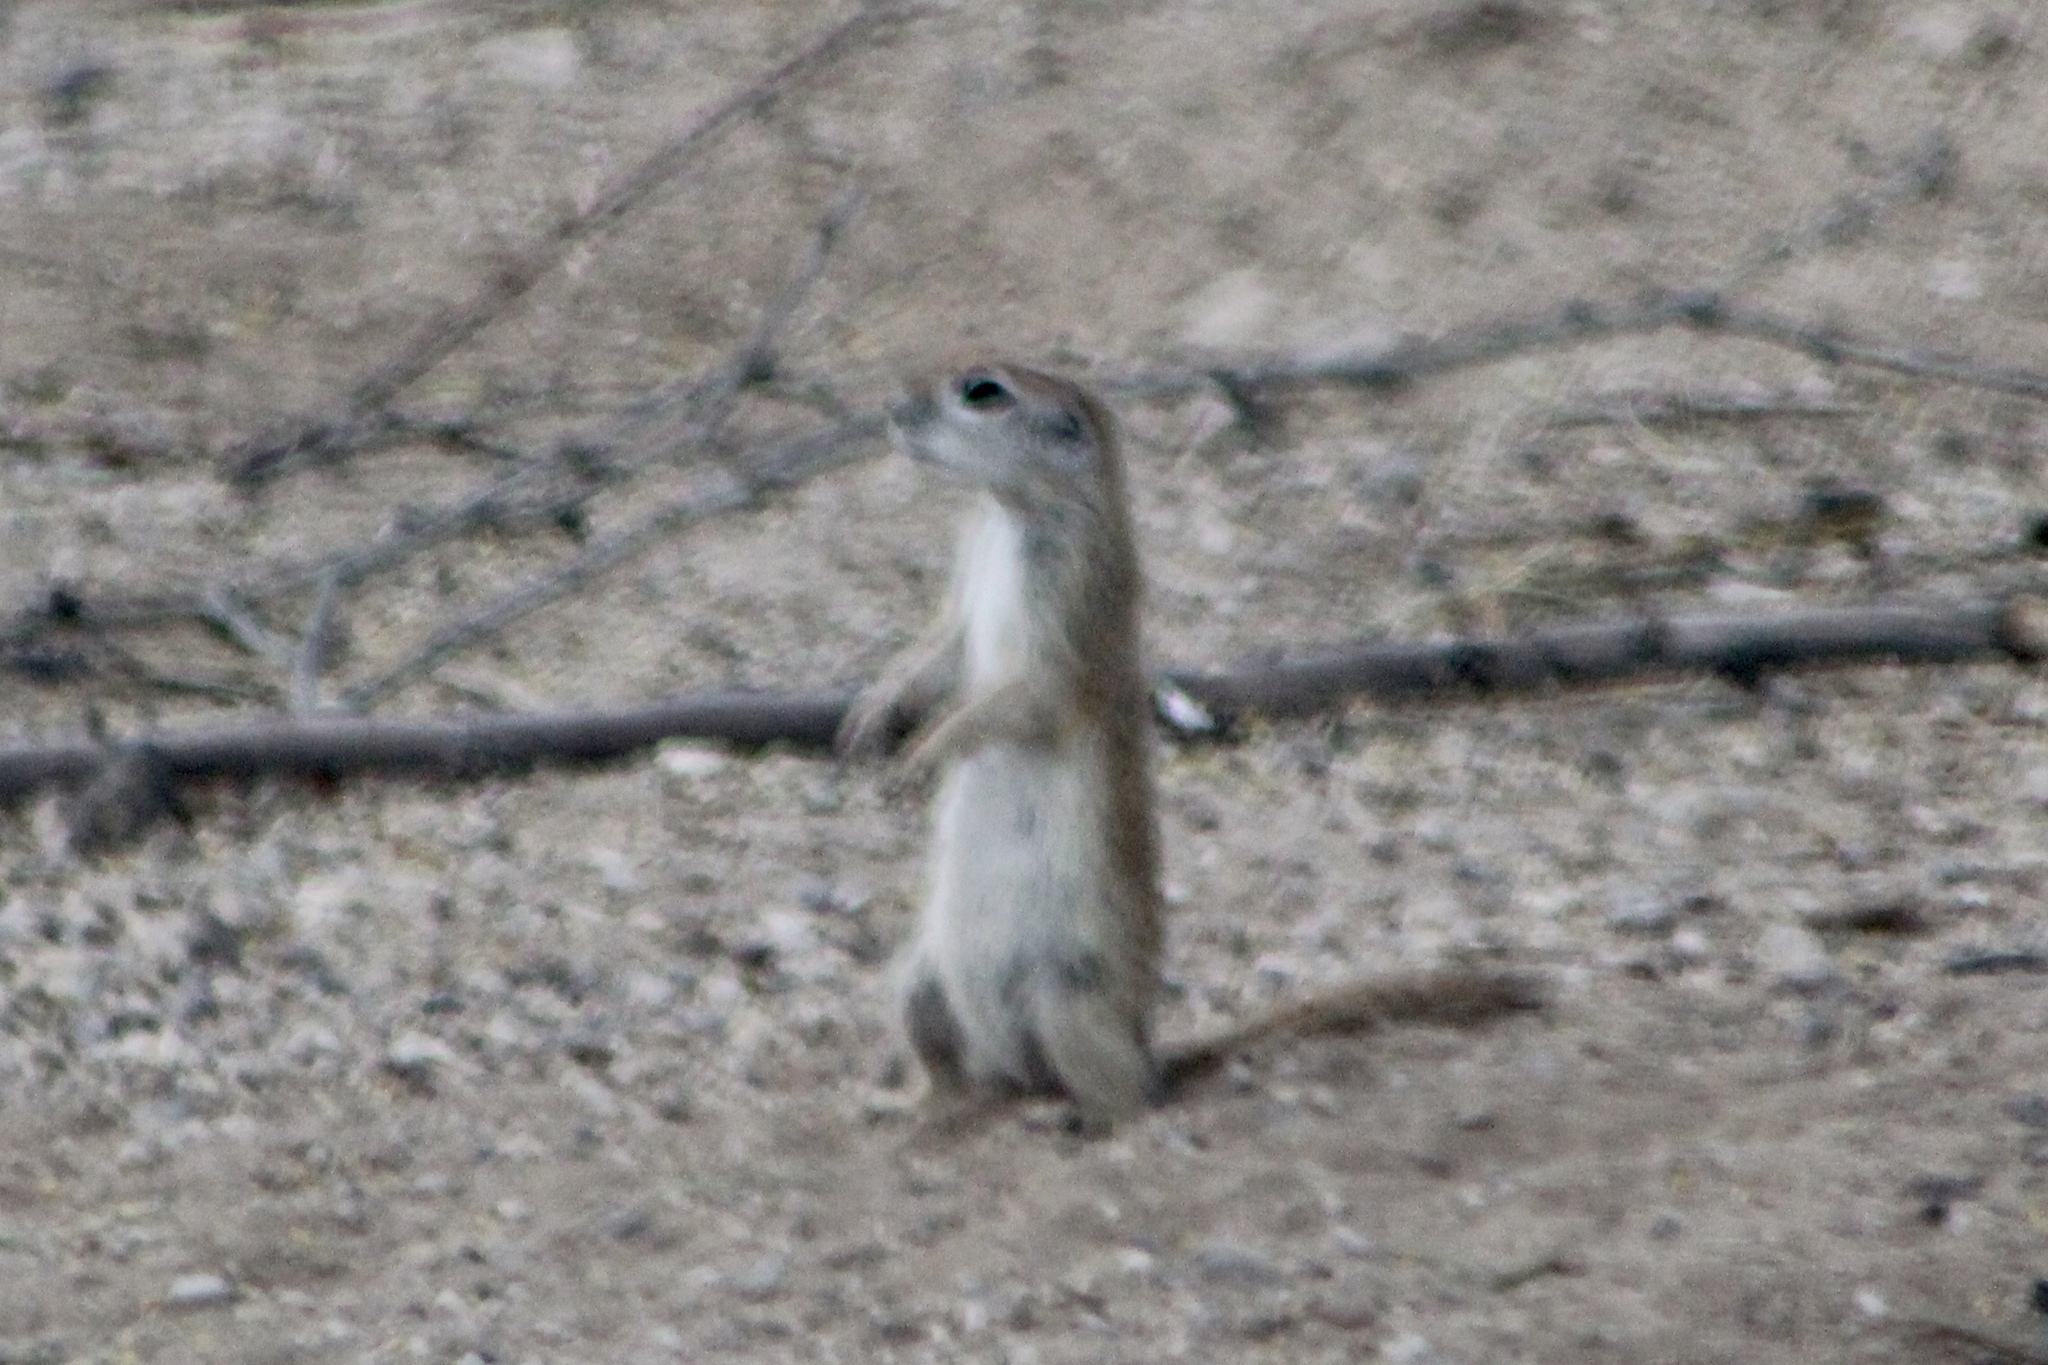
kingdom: Animalia
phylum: Chordata
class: Mammalia
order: Rodentia
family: Sciuridae
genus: Xerospermophilus
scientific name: Xerospermophilus tereticaudus
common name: Round-tailed ground squirrel
